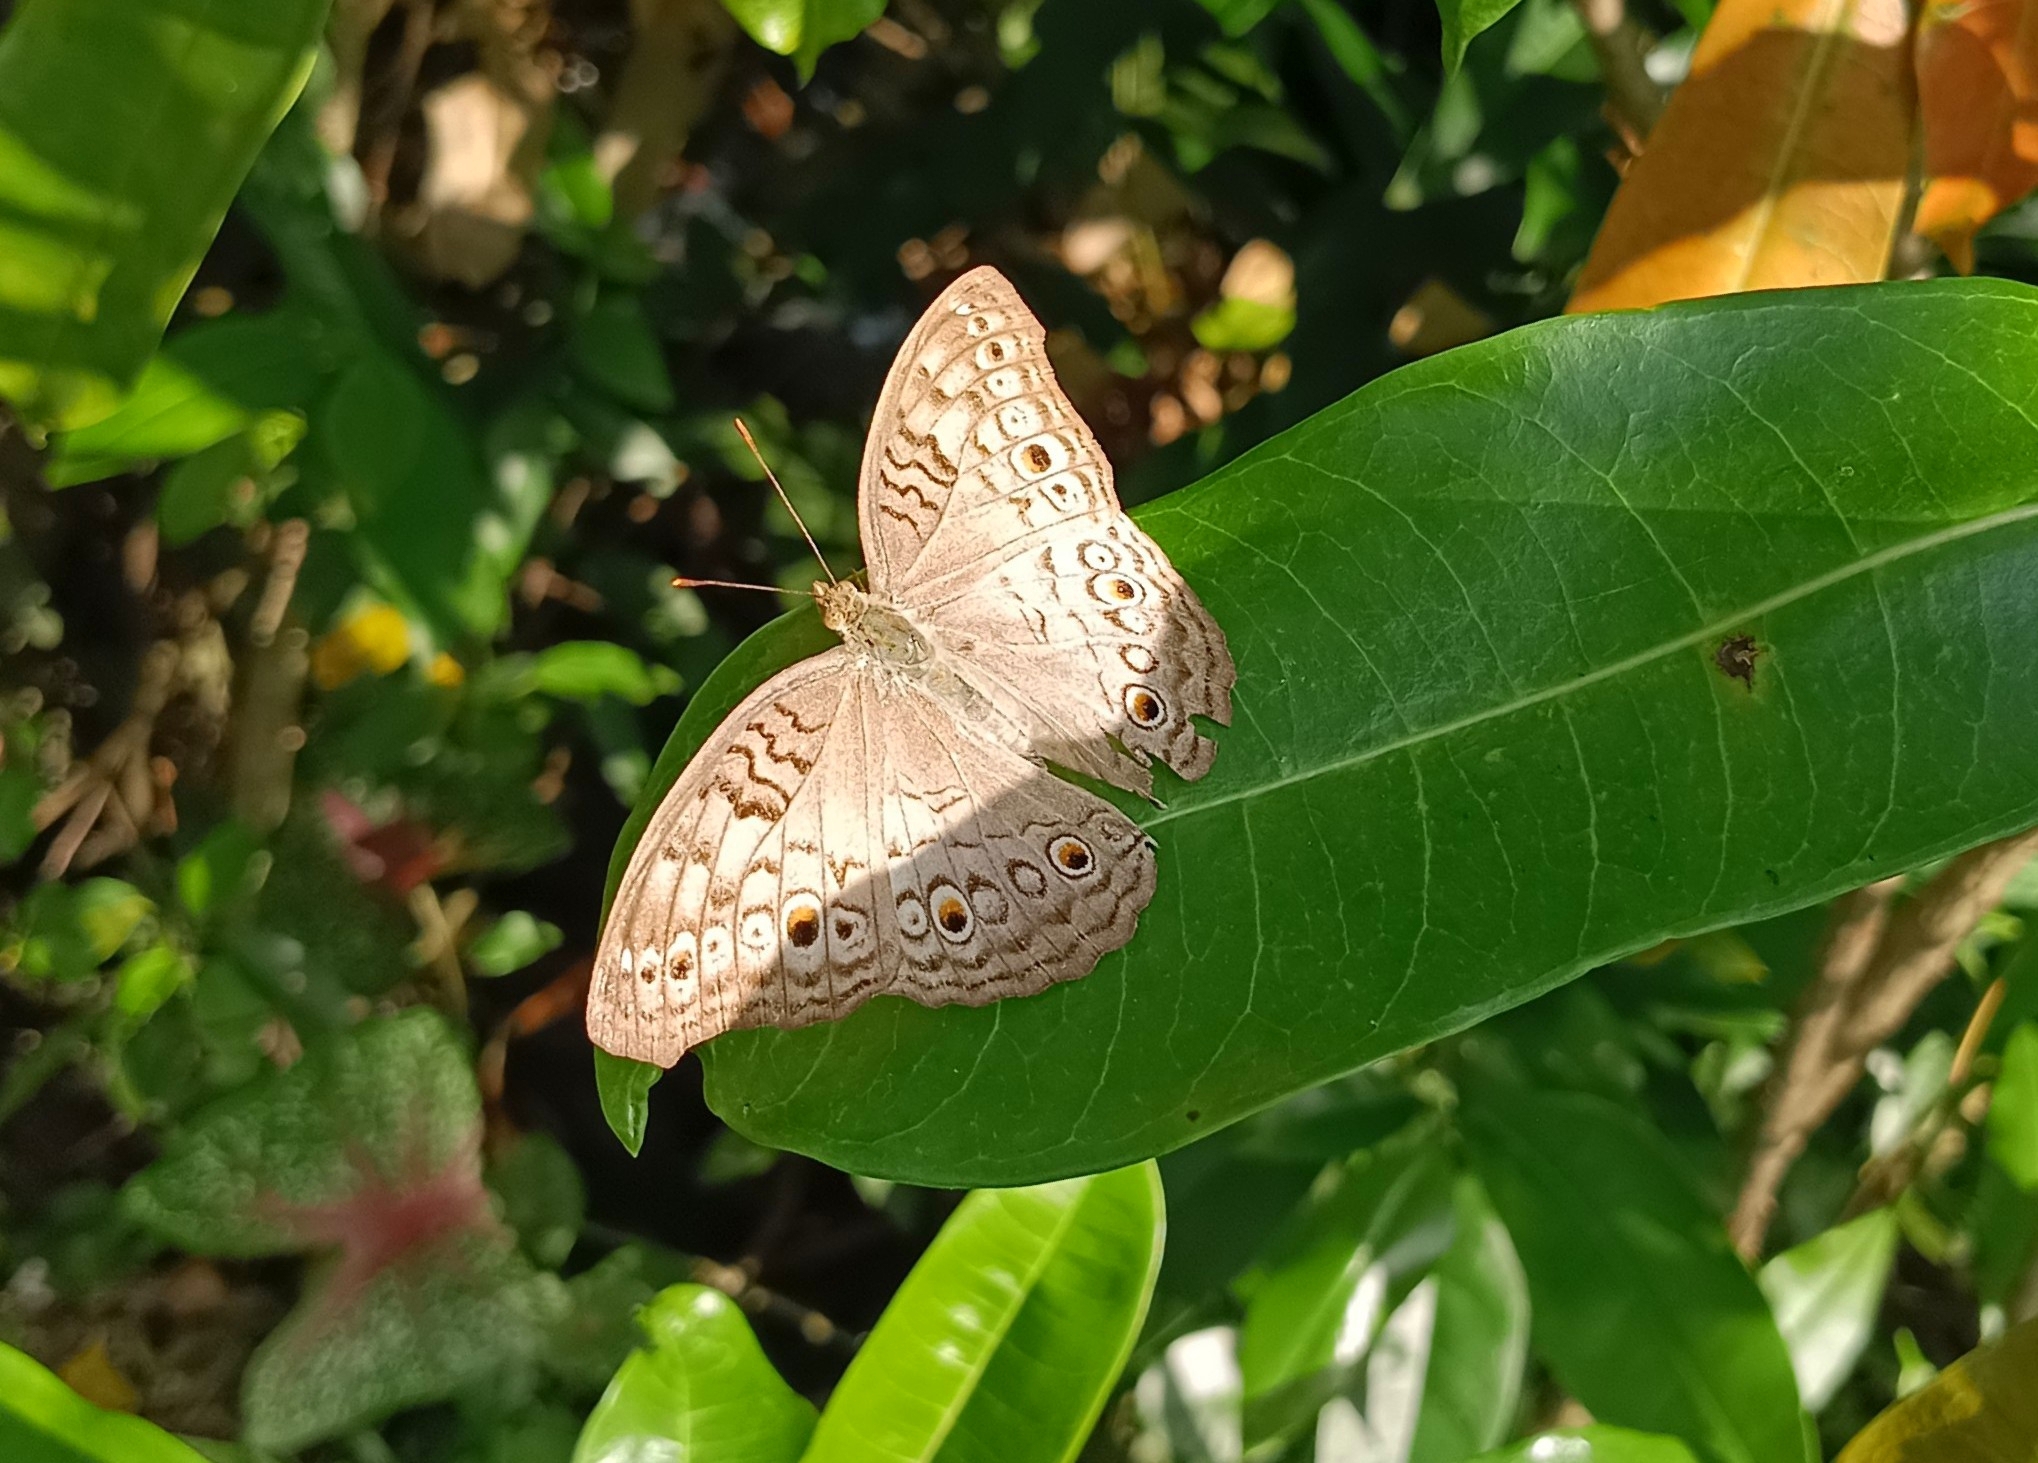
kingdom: Animalia
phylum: Arthropoda
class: Insecta
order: Lepidoptera
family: Nymphalidae
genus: Junonia
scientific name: Junonia atlites
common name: Grey pansy
